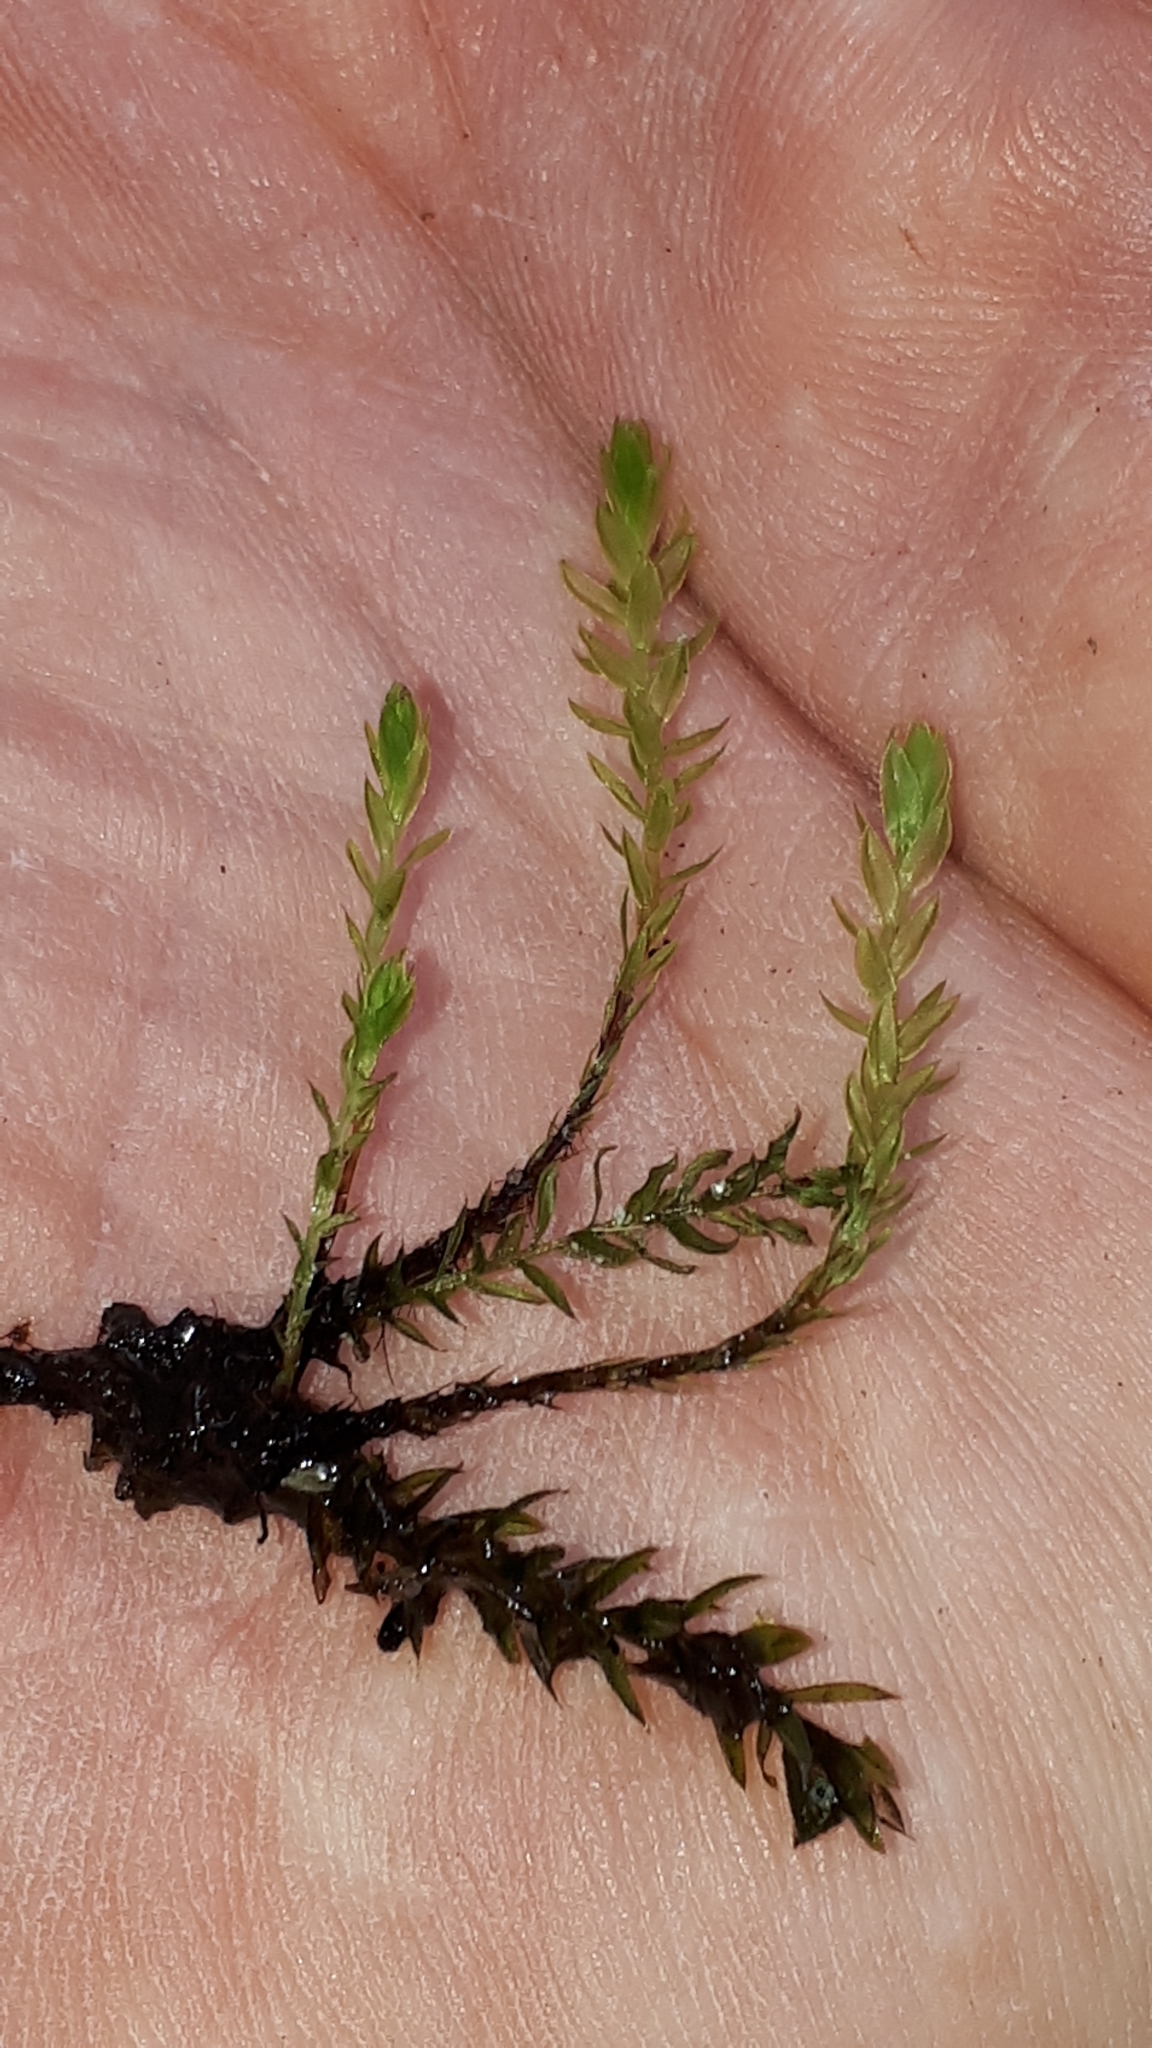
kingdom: Plantae
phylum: Bryophyta
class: Bryopsida
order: Bryales
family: Mniaceae
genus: Mnium
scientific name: Mnium hornum
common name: Swan's-neck leafy moss
